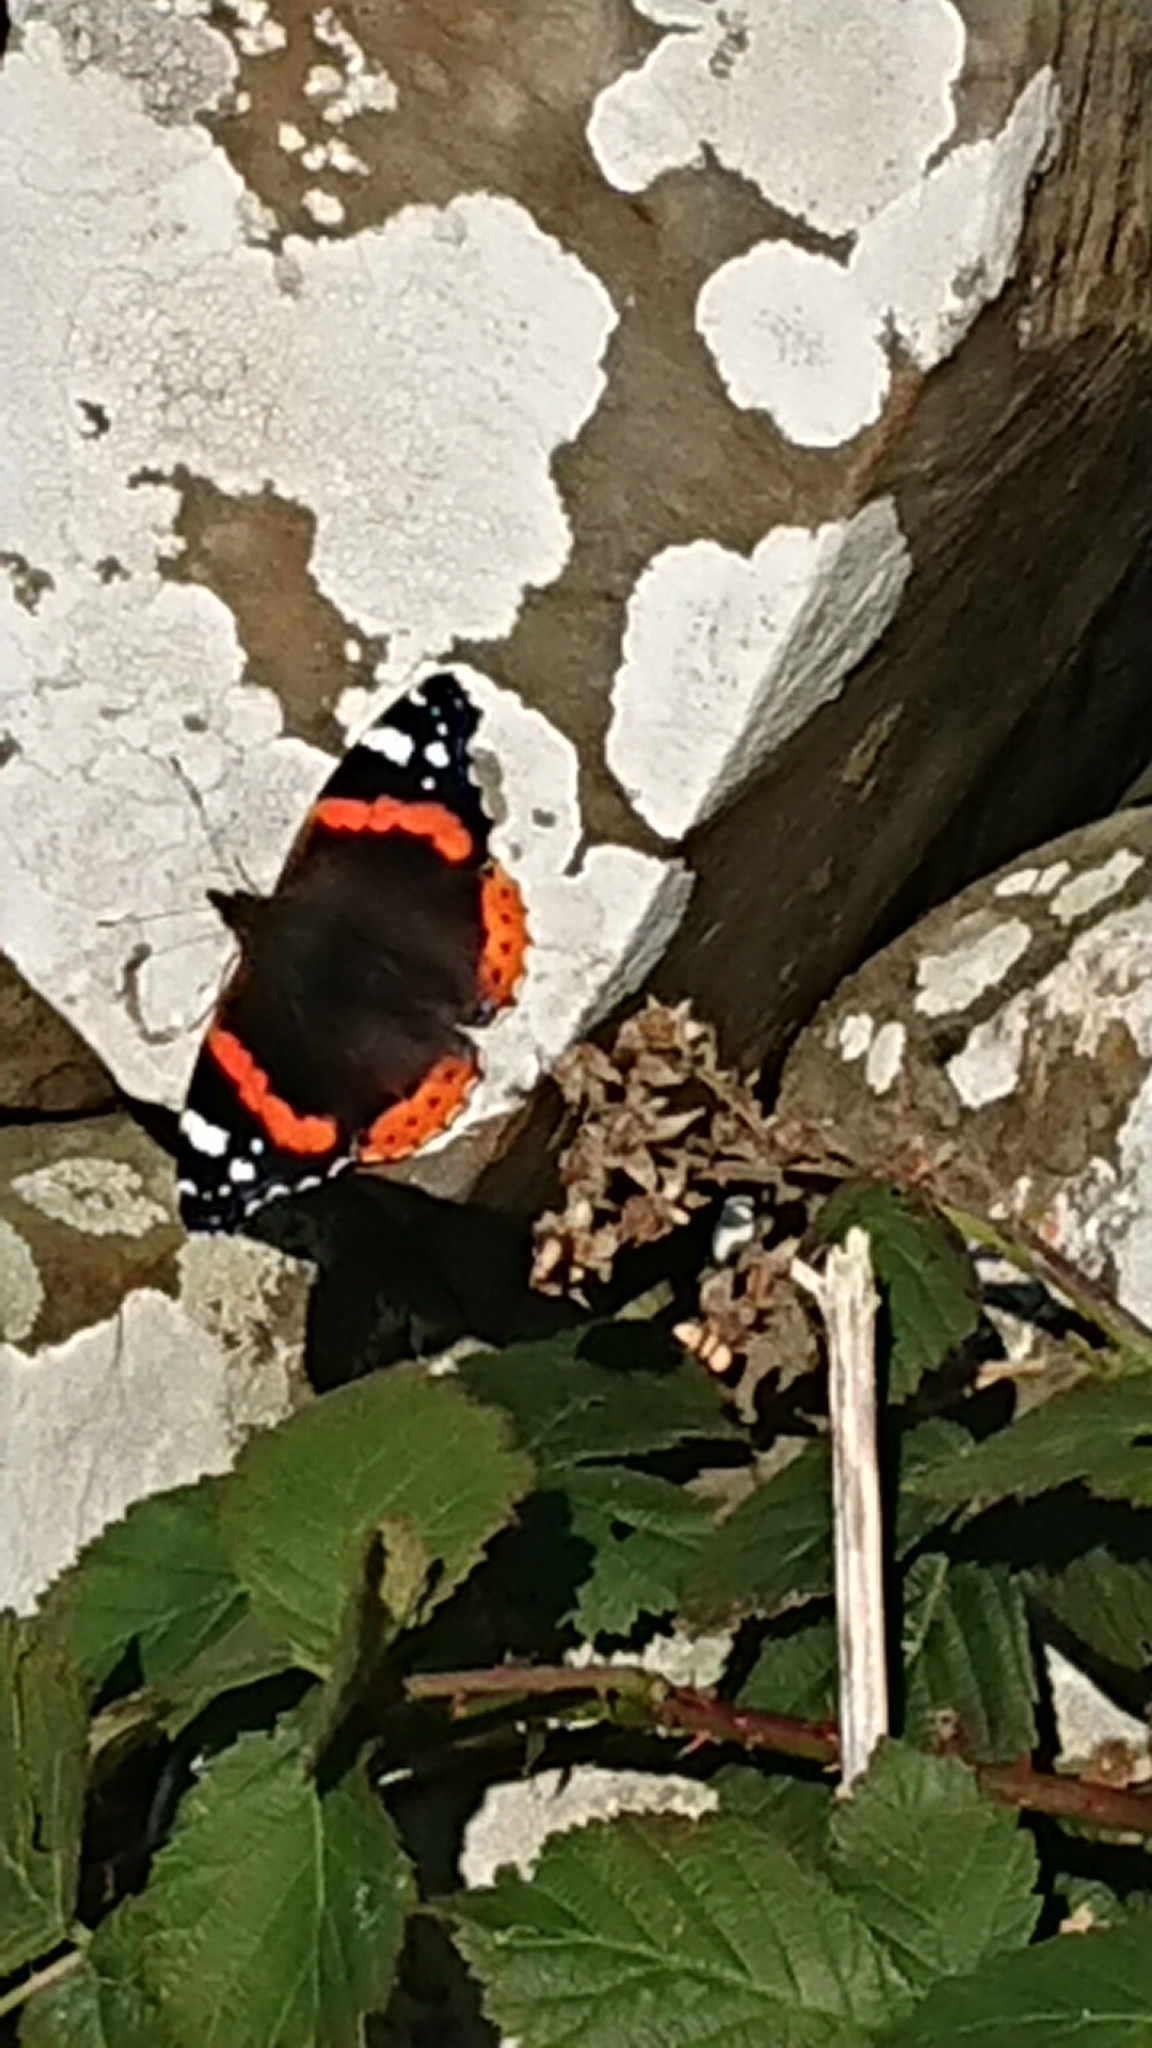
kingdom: Animalia
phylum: Arthropoda
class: Insecta
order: Lepidoptera
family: Nymphalidae
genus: Vanessa
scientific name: Vanessa atalanta
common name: Red admiral
